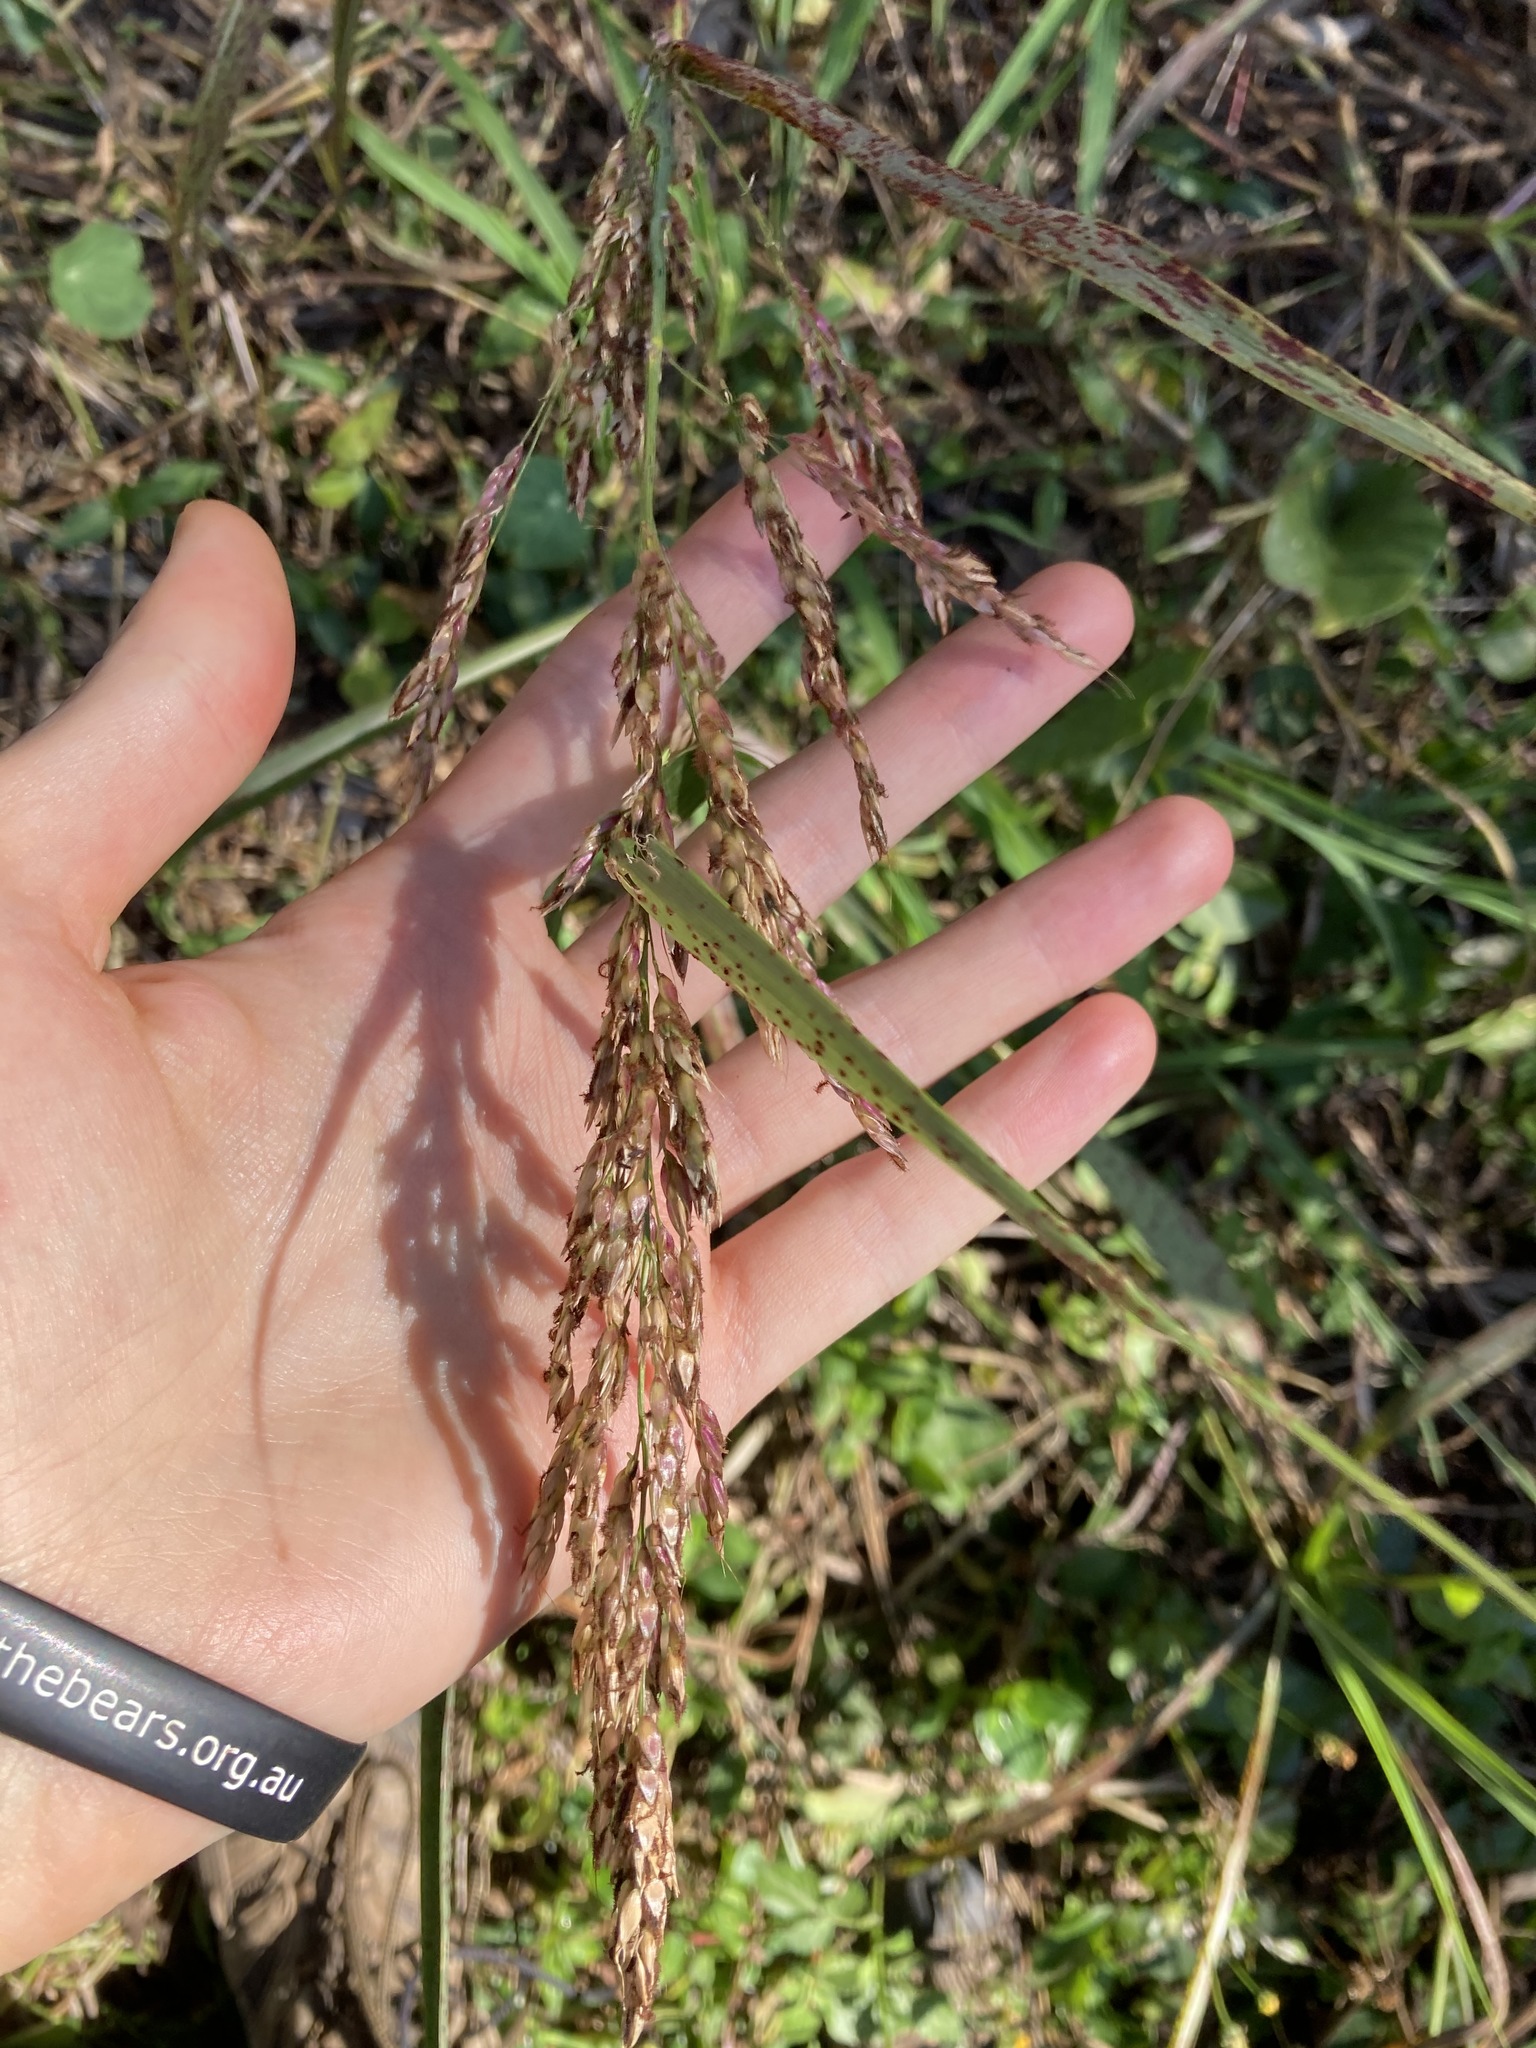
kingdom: Plantae
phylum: Tracheophyta
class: Liliopsida
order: Poales
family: Poaceae
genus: Sorghum
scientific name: Sorghum halepense
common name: Johnson-grass
